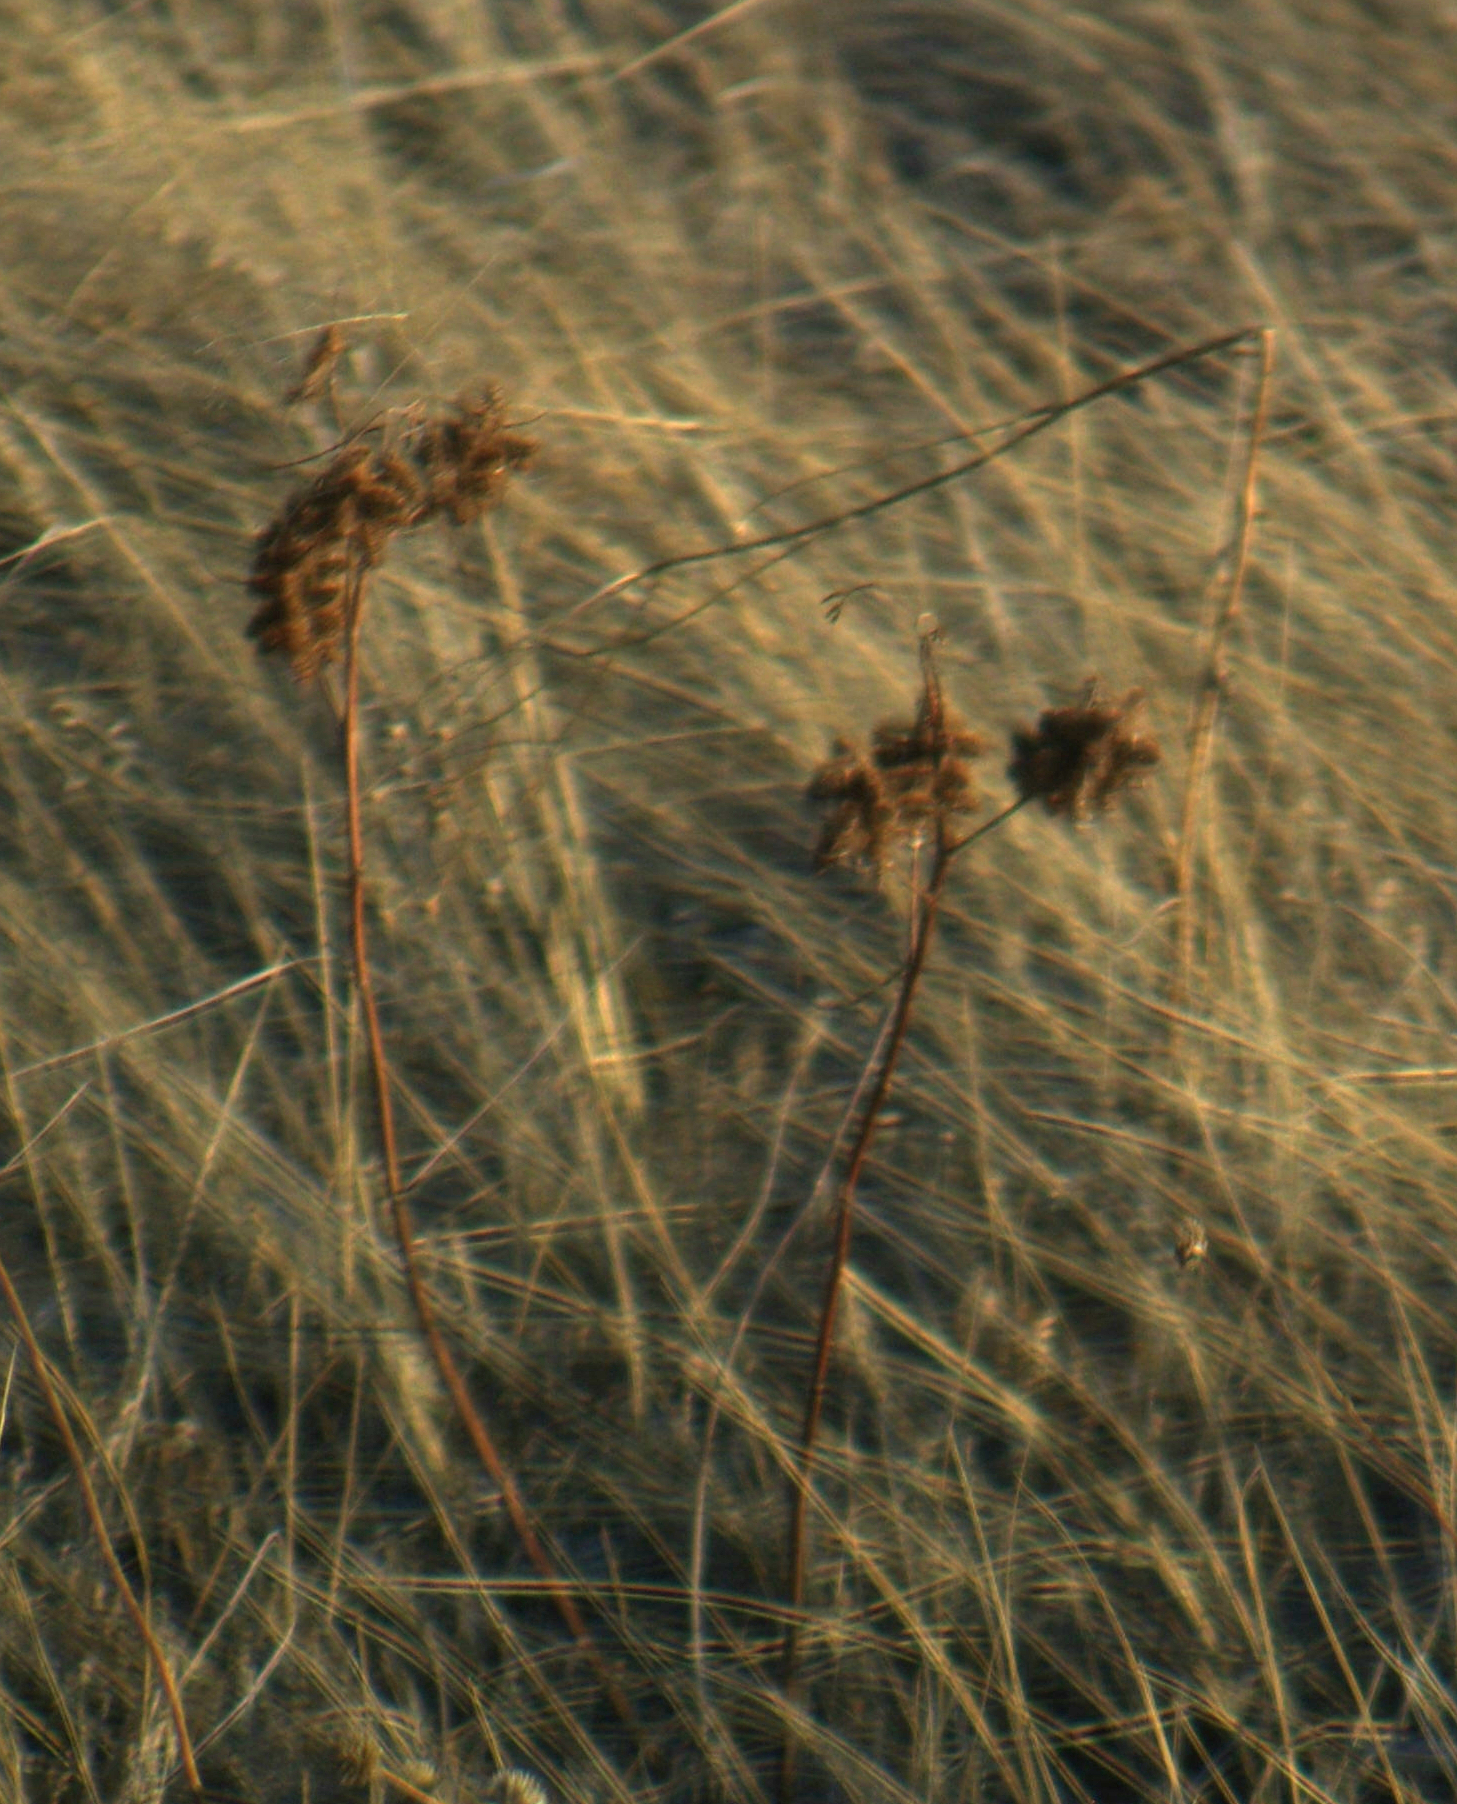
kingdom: Plantae
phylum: Tracheophyta
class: Magnoliopsida
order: Fabales
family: Fabaceae
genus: Glycyrrhiza
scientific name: Glycyrrhiza lepidota
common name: American liquorice
